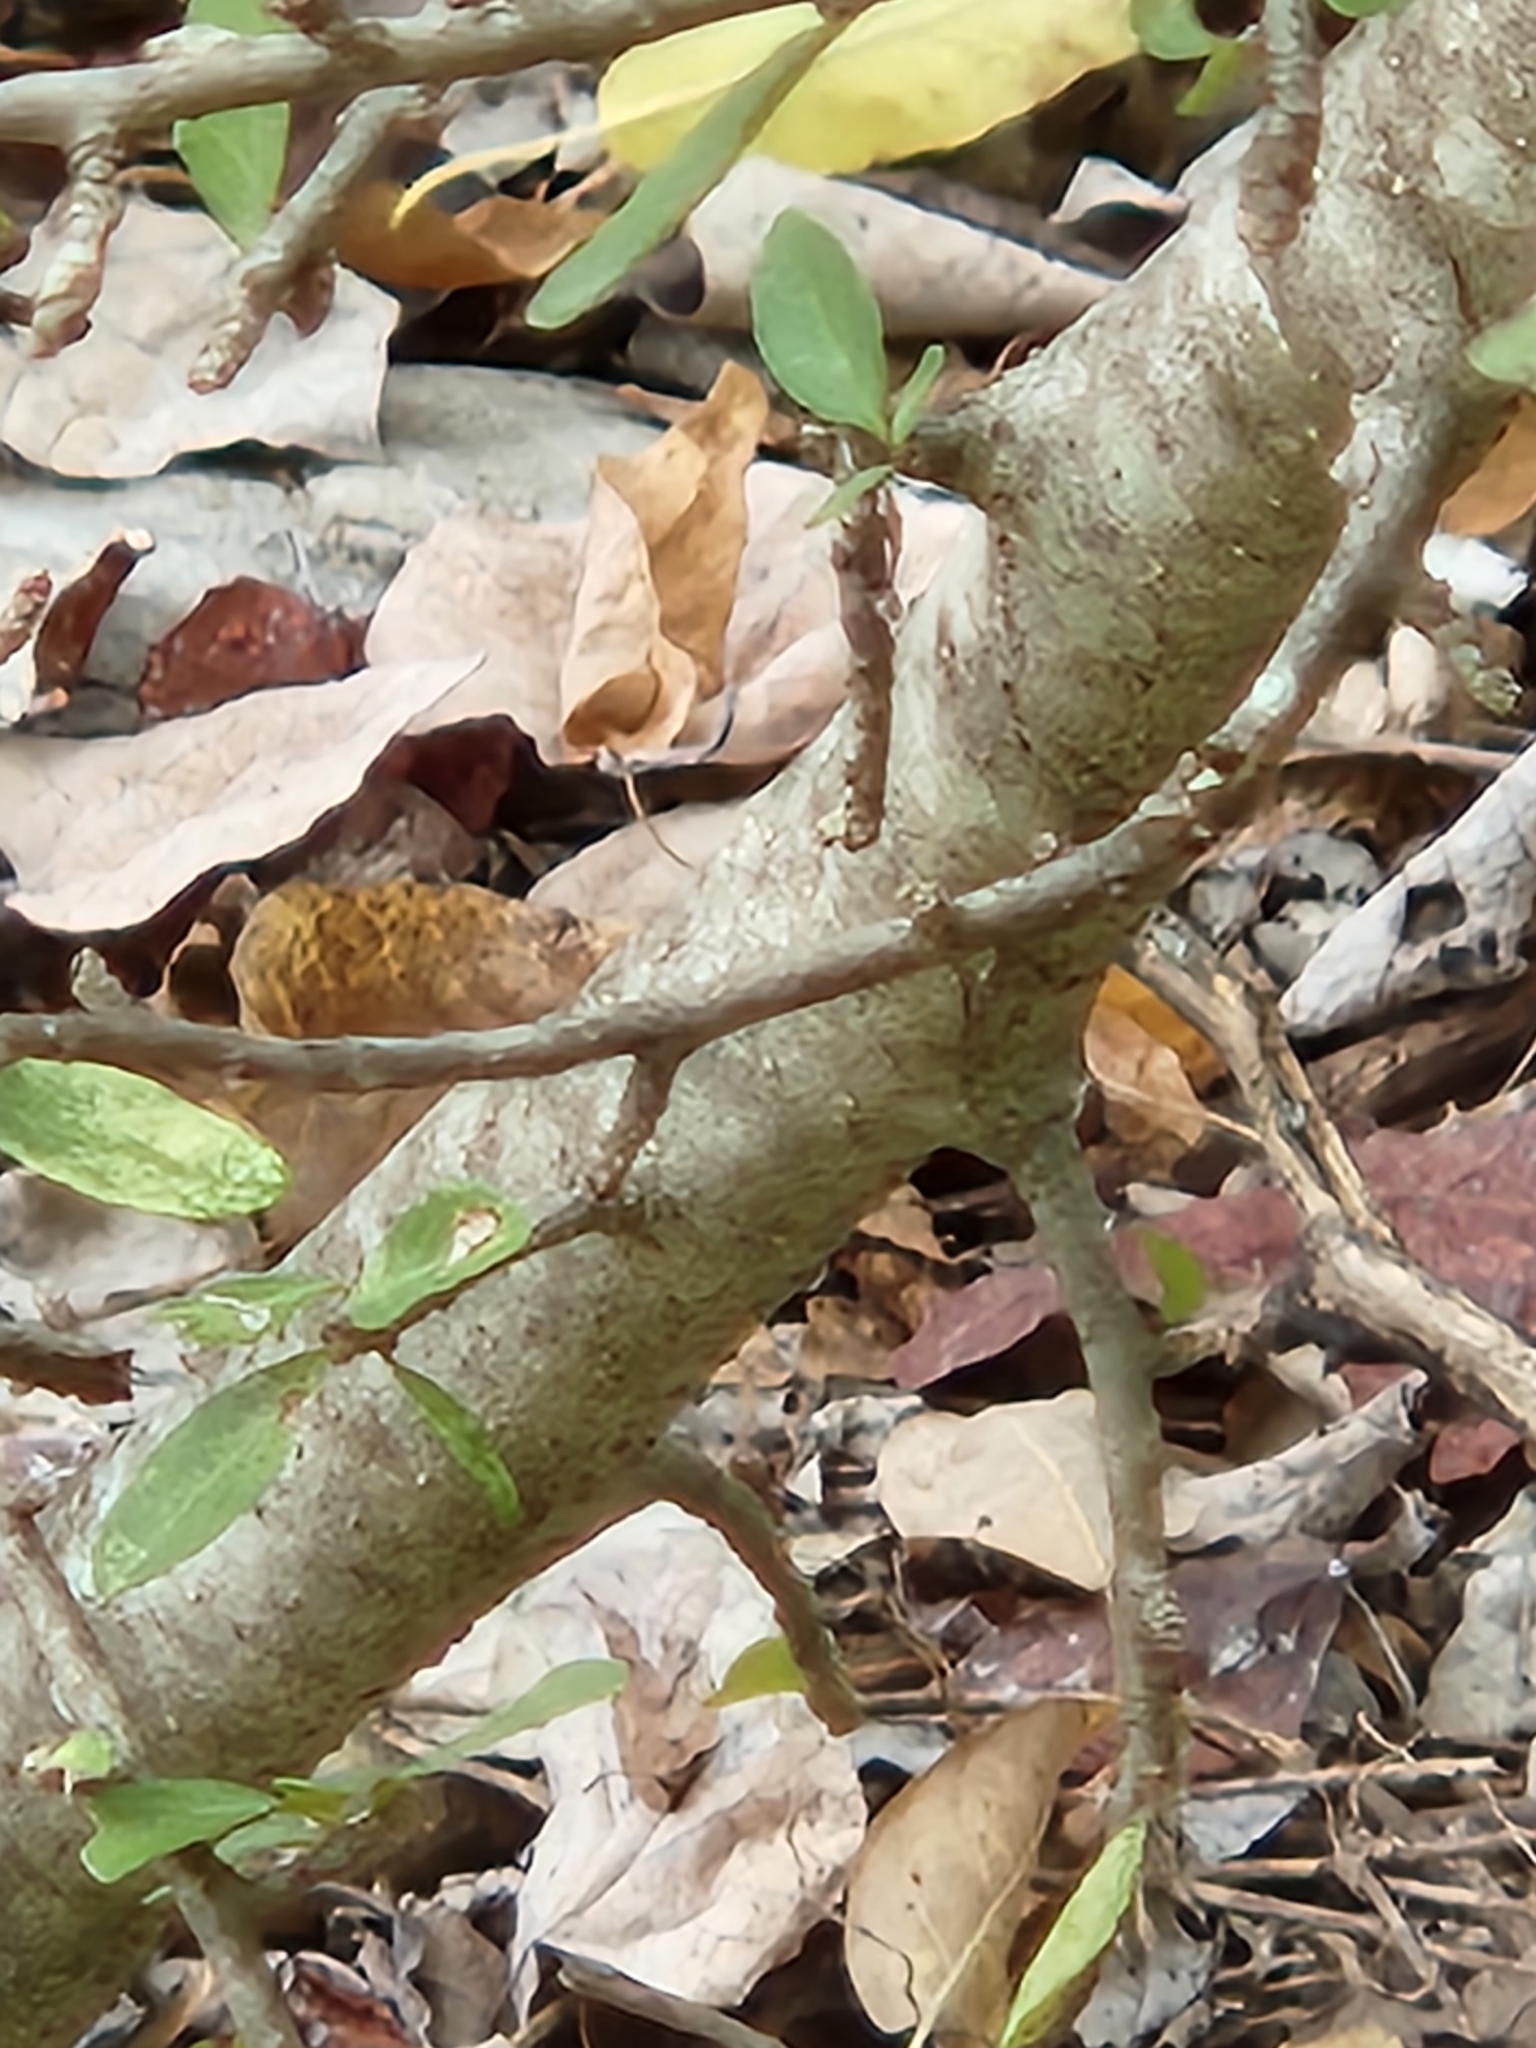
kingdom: Plantae
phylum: Tracheophyta
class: Magnoliopsida
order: Aquifoliales
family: Aquifoliaceae
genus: Ilex
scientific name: Ilex decidua
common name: Possum-haw
